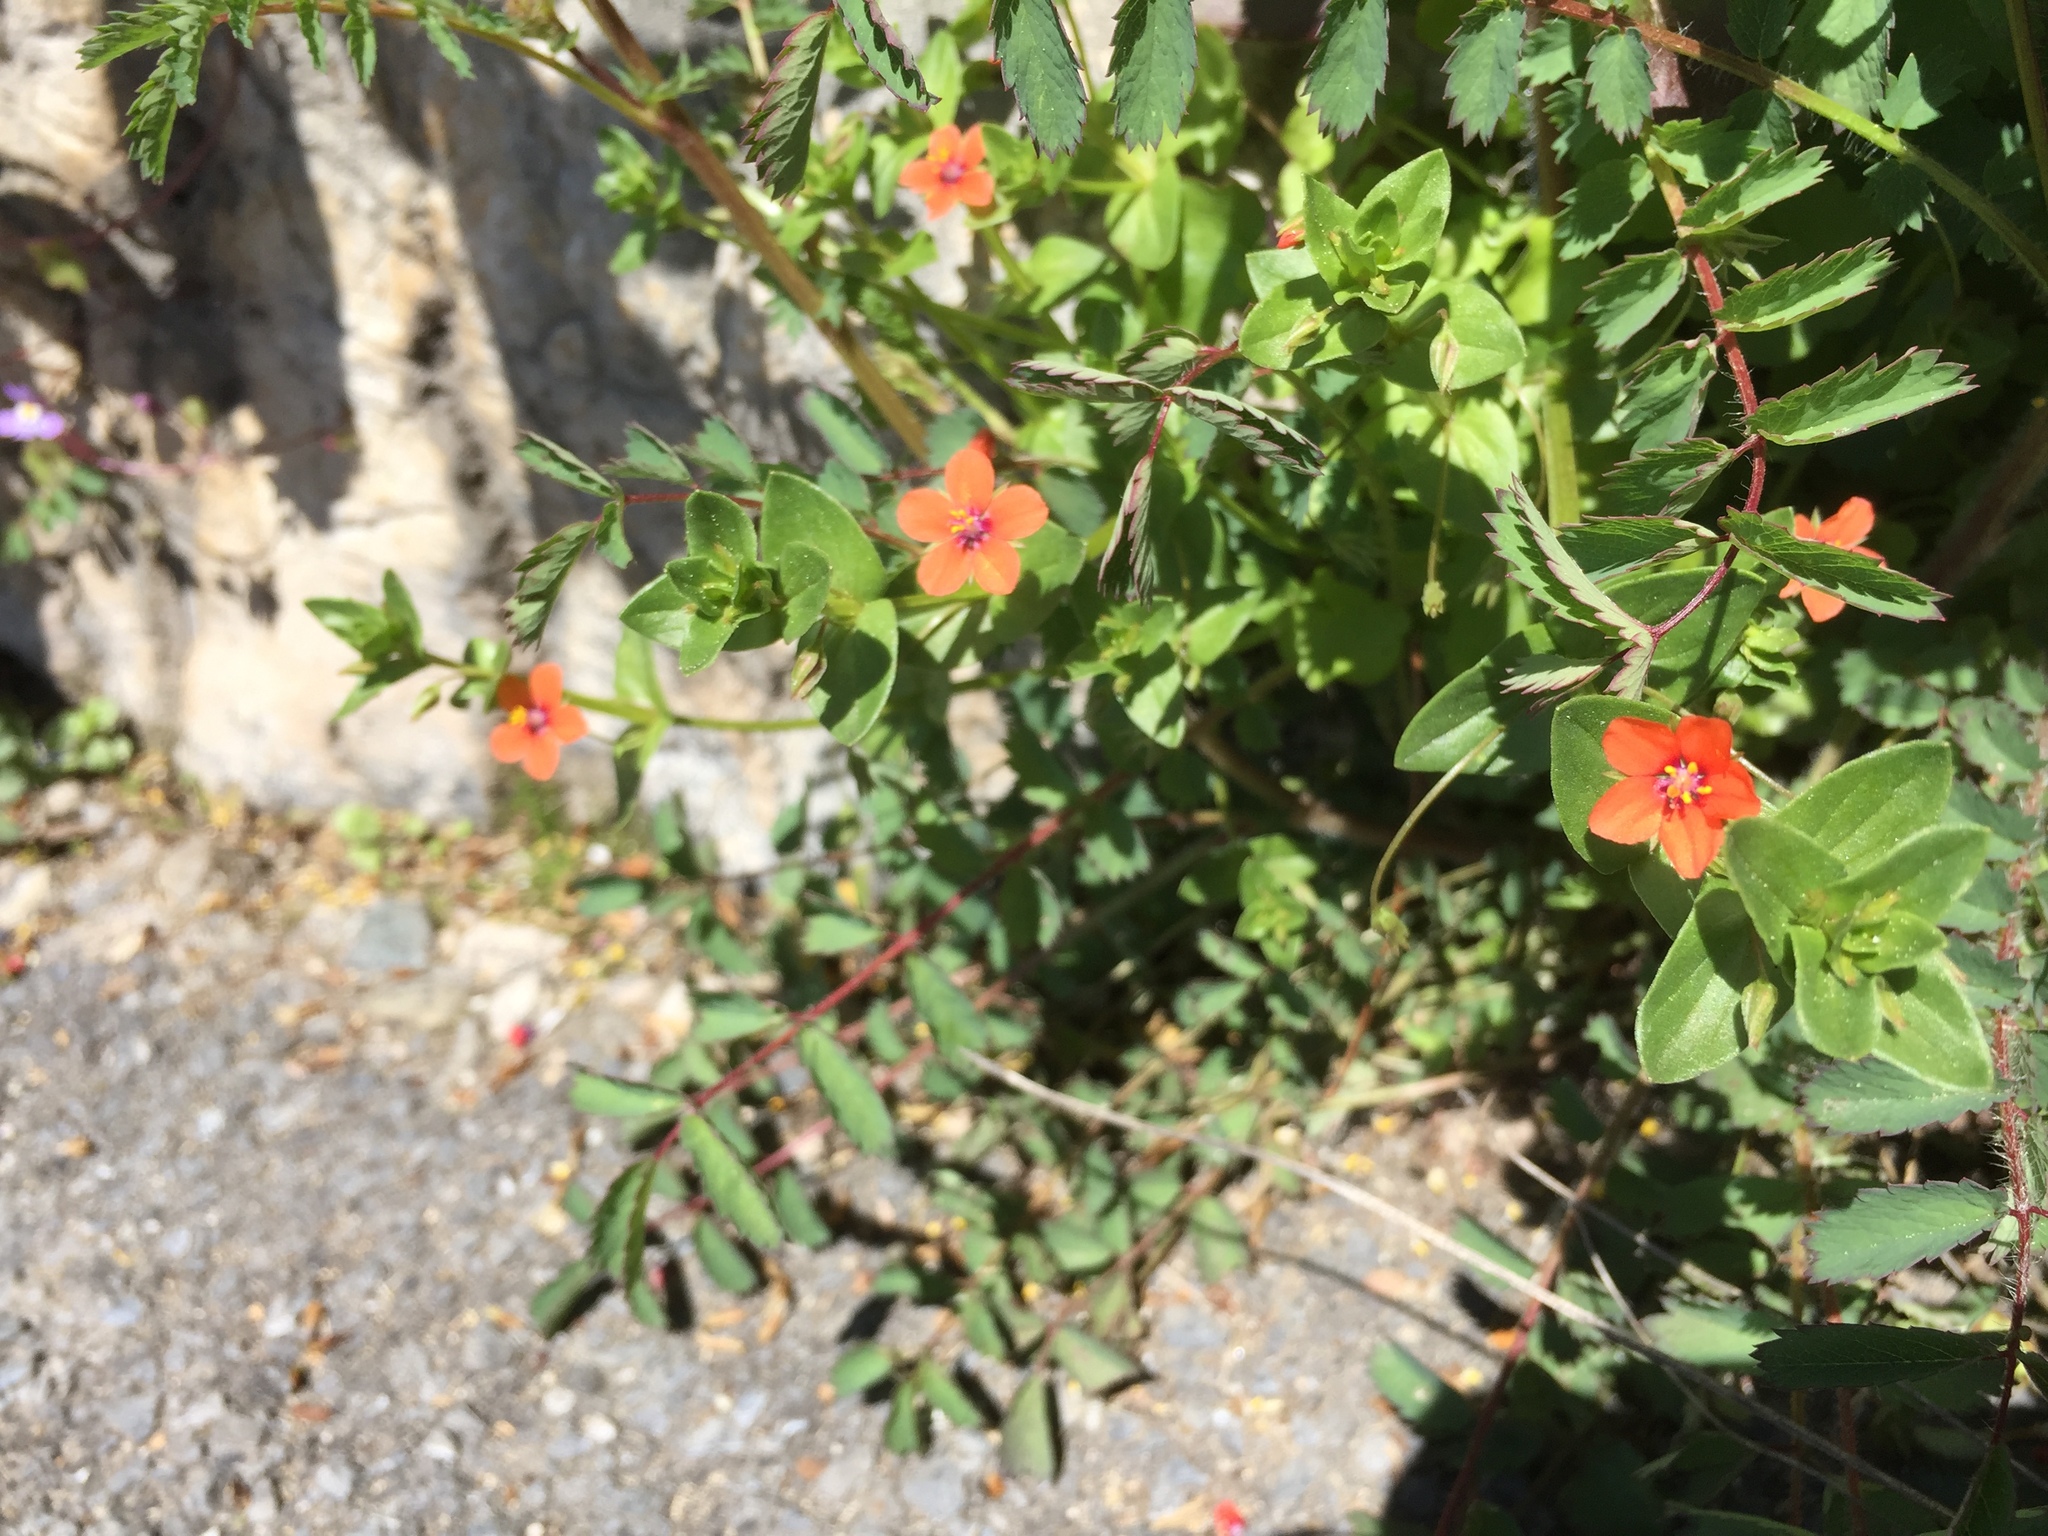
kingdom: Plantae
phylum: Tracheophyta
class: Magnoliopsida
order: Ericales
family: Primulaceae
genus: Lysimachia
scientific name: Lysimachia arvensis
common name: Scarlet pimpernel
